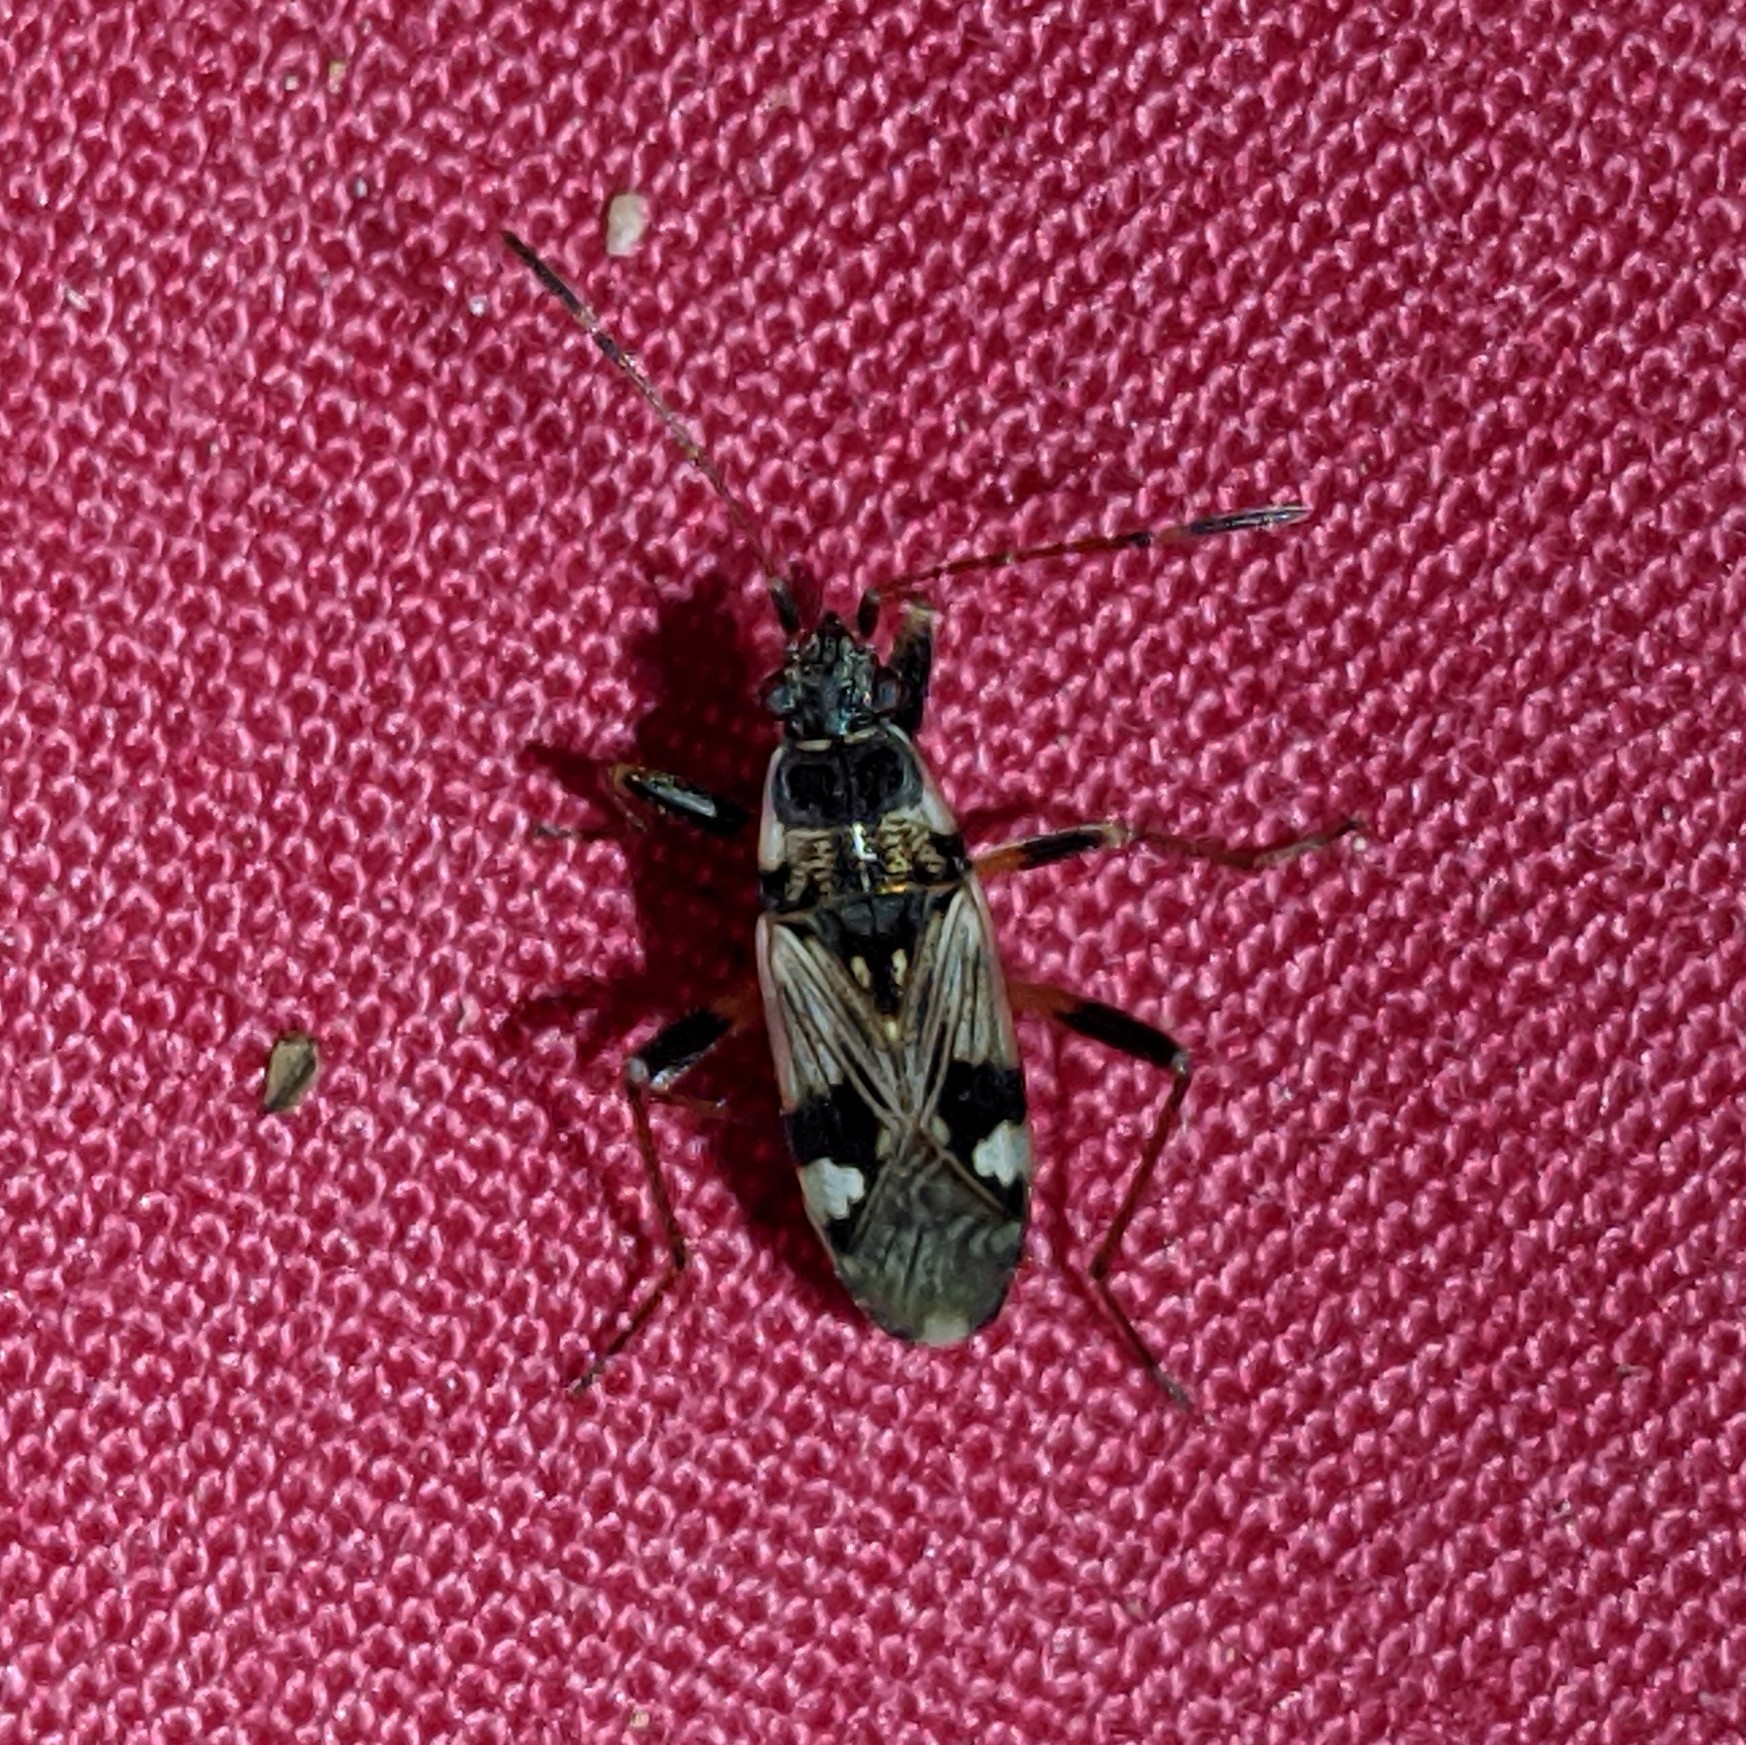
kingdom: Animalia
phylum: Arthropoda
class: Insecta
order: Hemiptera
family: Rhyparochromidae
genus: Beosus
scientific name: Beosus maritimus
